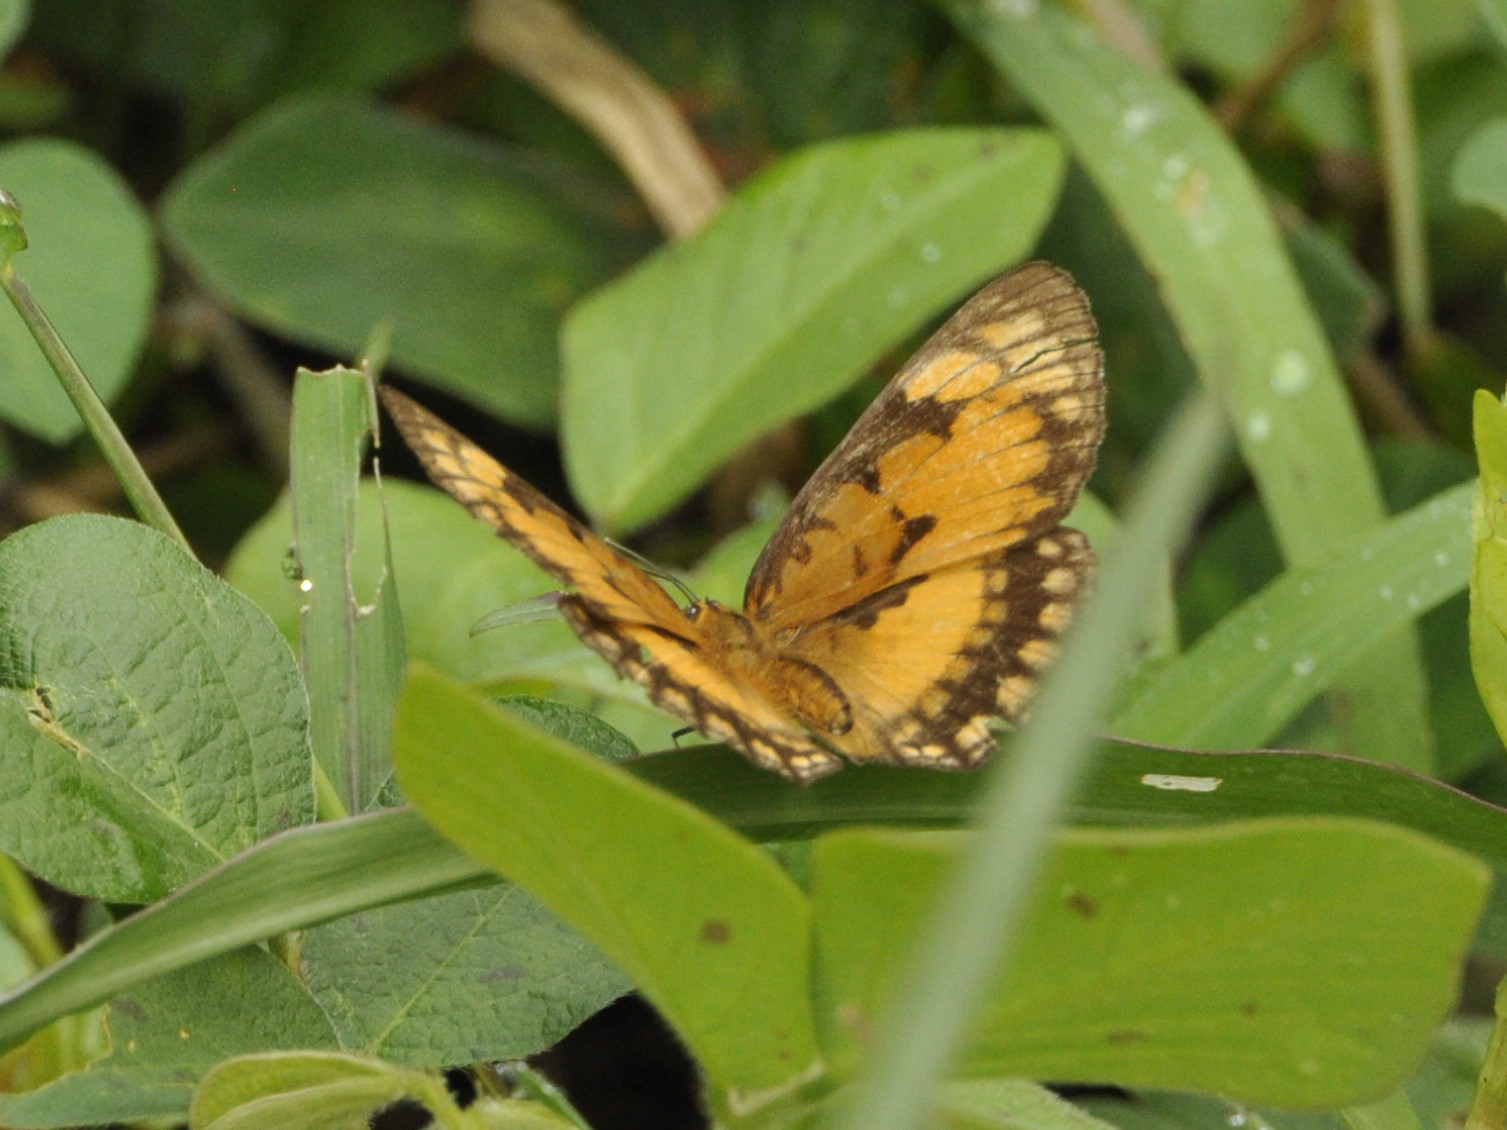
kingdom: Animalia
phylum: Arthropoda
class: Insecta
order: Lepidoptera
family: Nymphalidae
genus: Byblia
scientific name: Byblia acheloia
